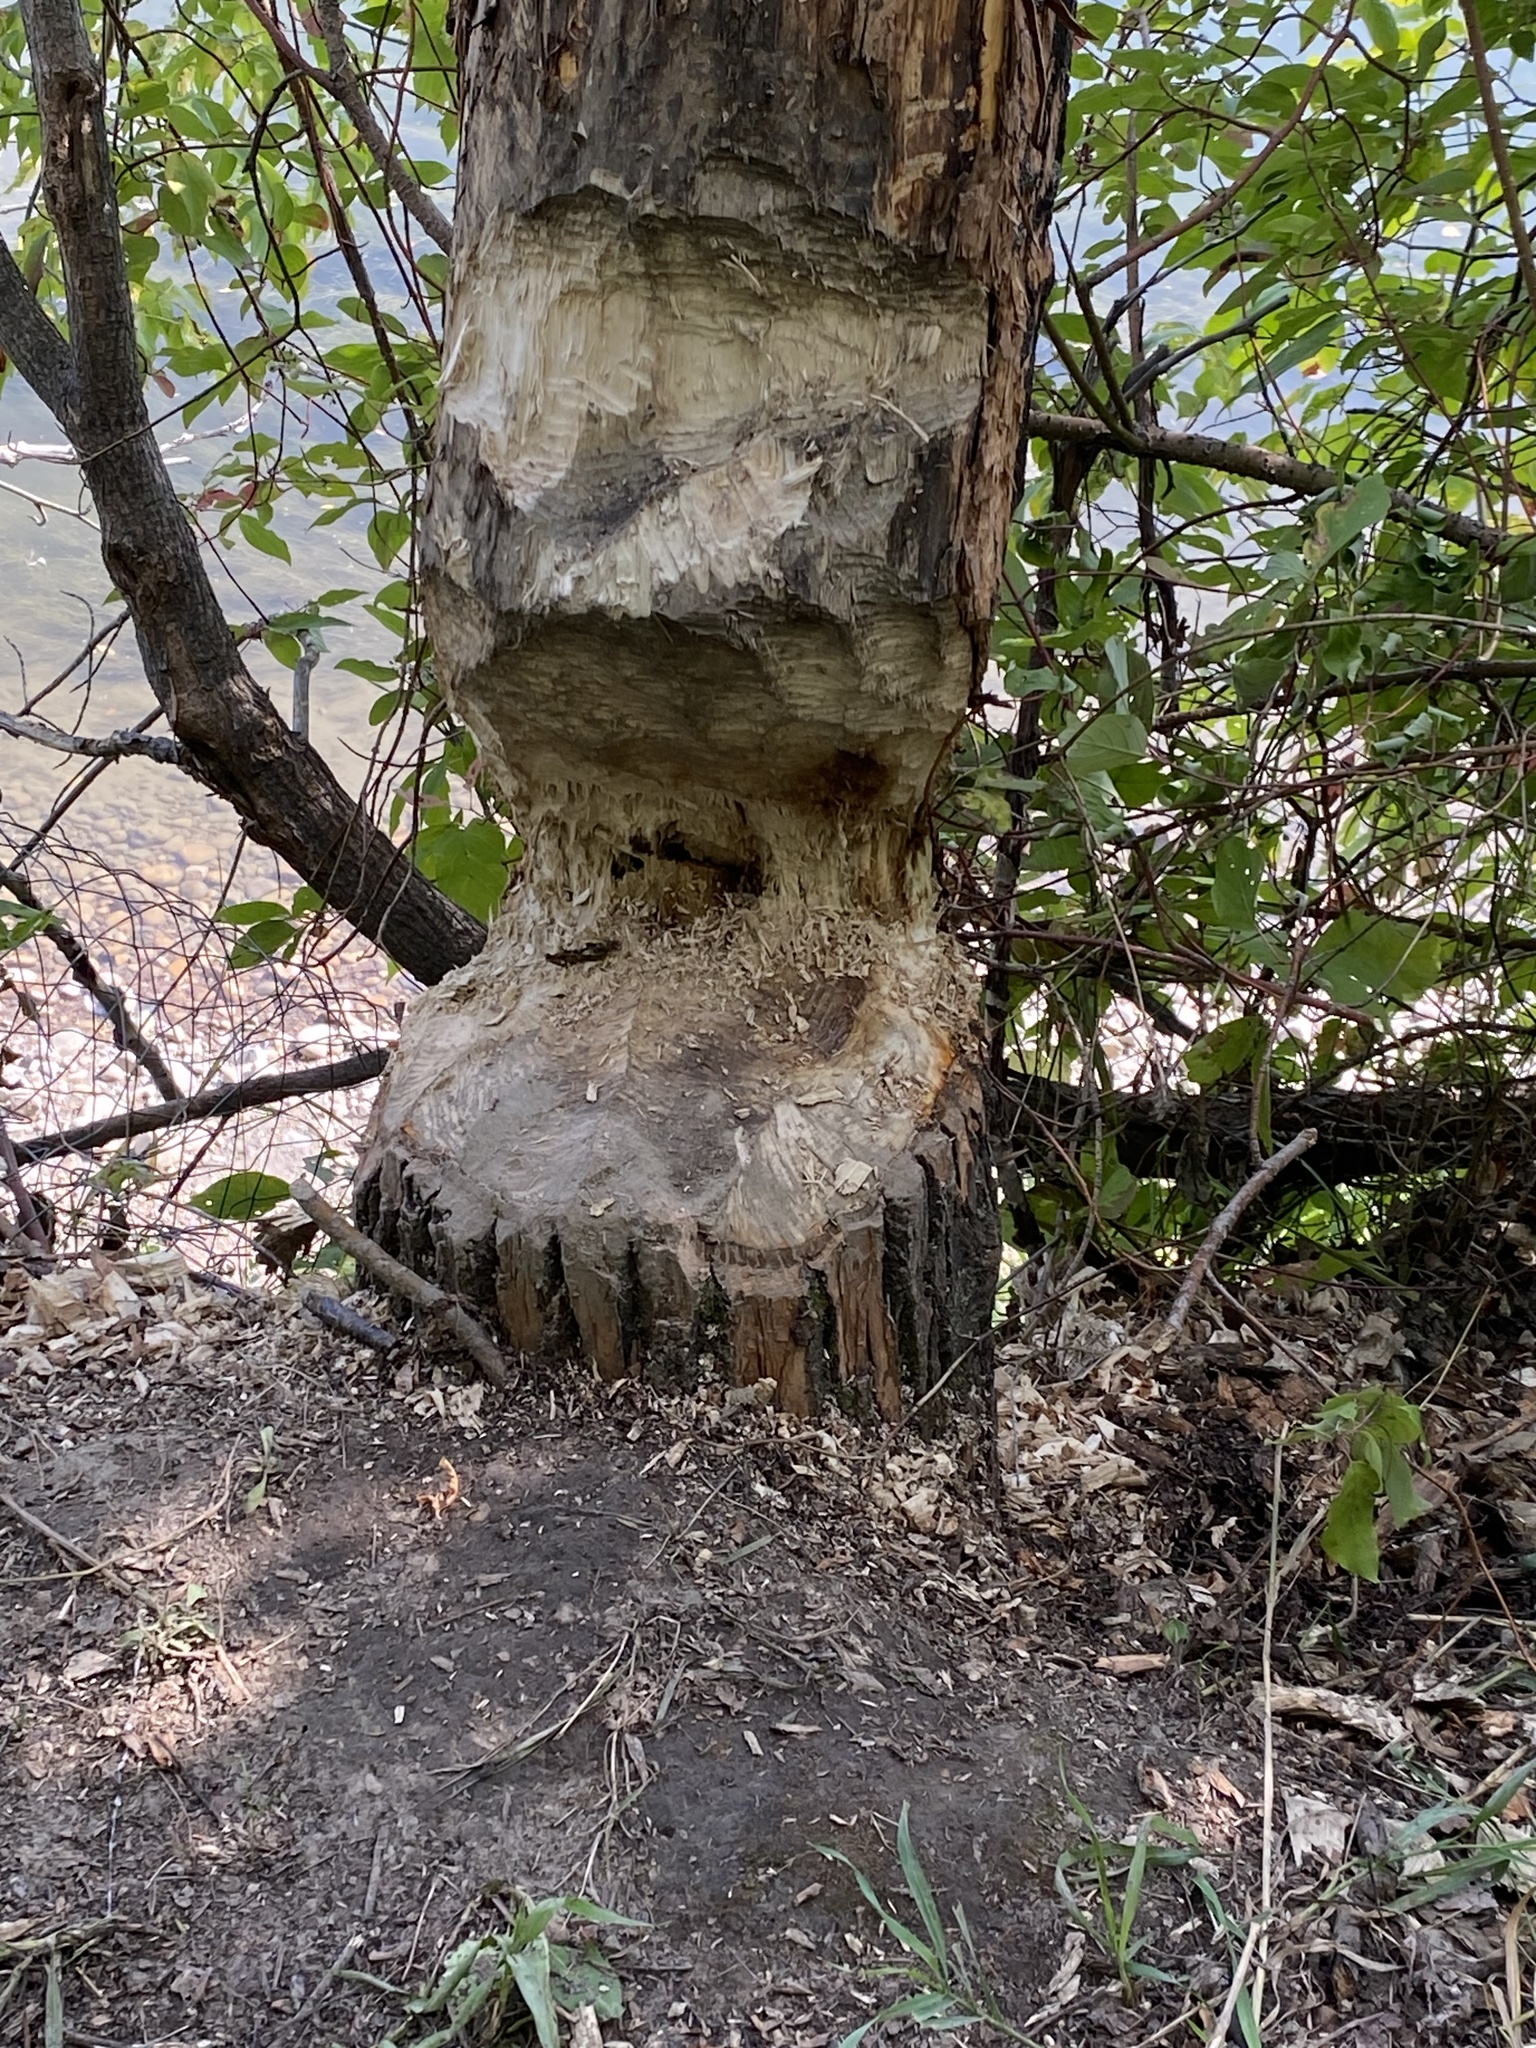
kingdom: Animalia
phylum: Chordata
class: Mammalia
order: Rodentia
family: Castoridae
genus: Castor
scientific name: Castor canadensis
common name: American beaver
